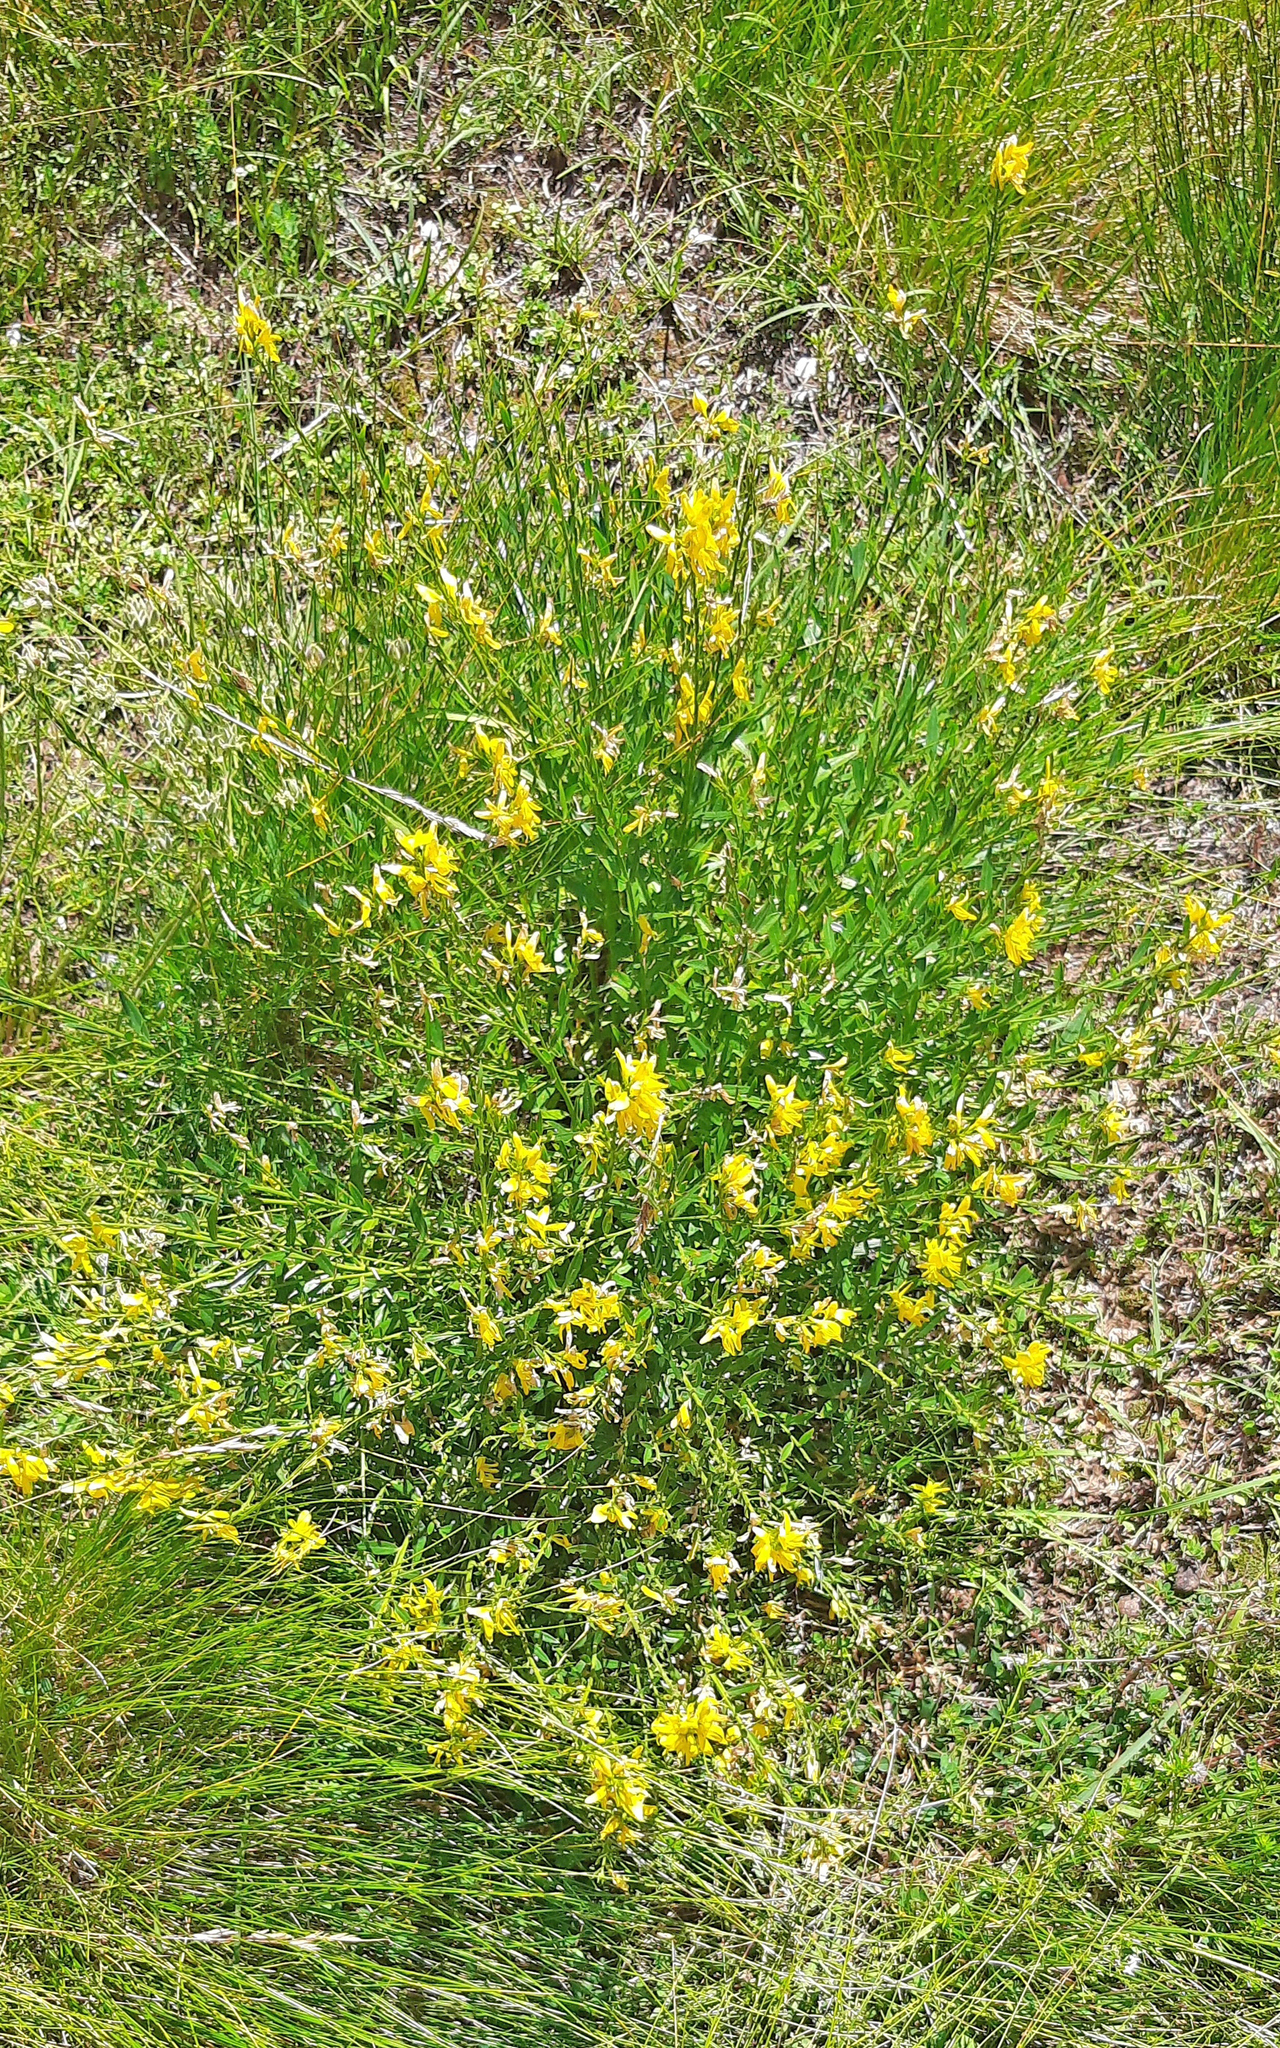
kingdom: Plantae
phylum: Tracheophyta
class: Magnoliopsida
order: Fabales
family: Fabaceae
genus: Genista
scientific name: Genista radiata
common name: Southern greenweed
